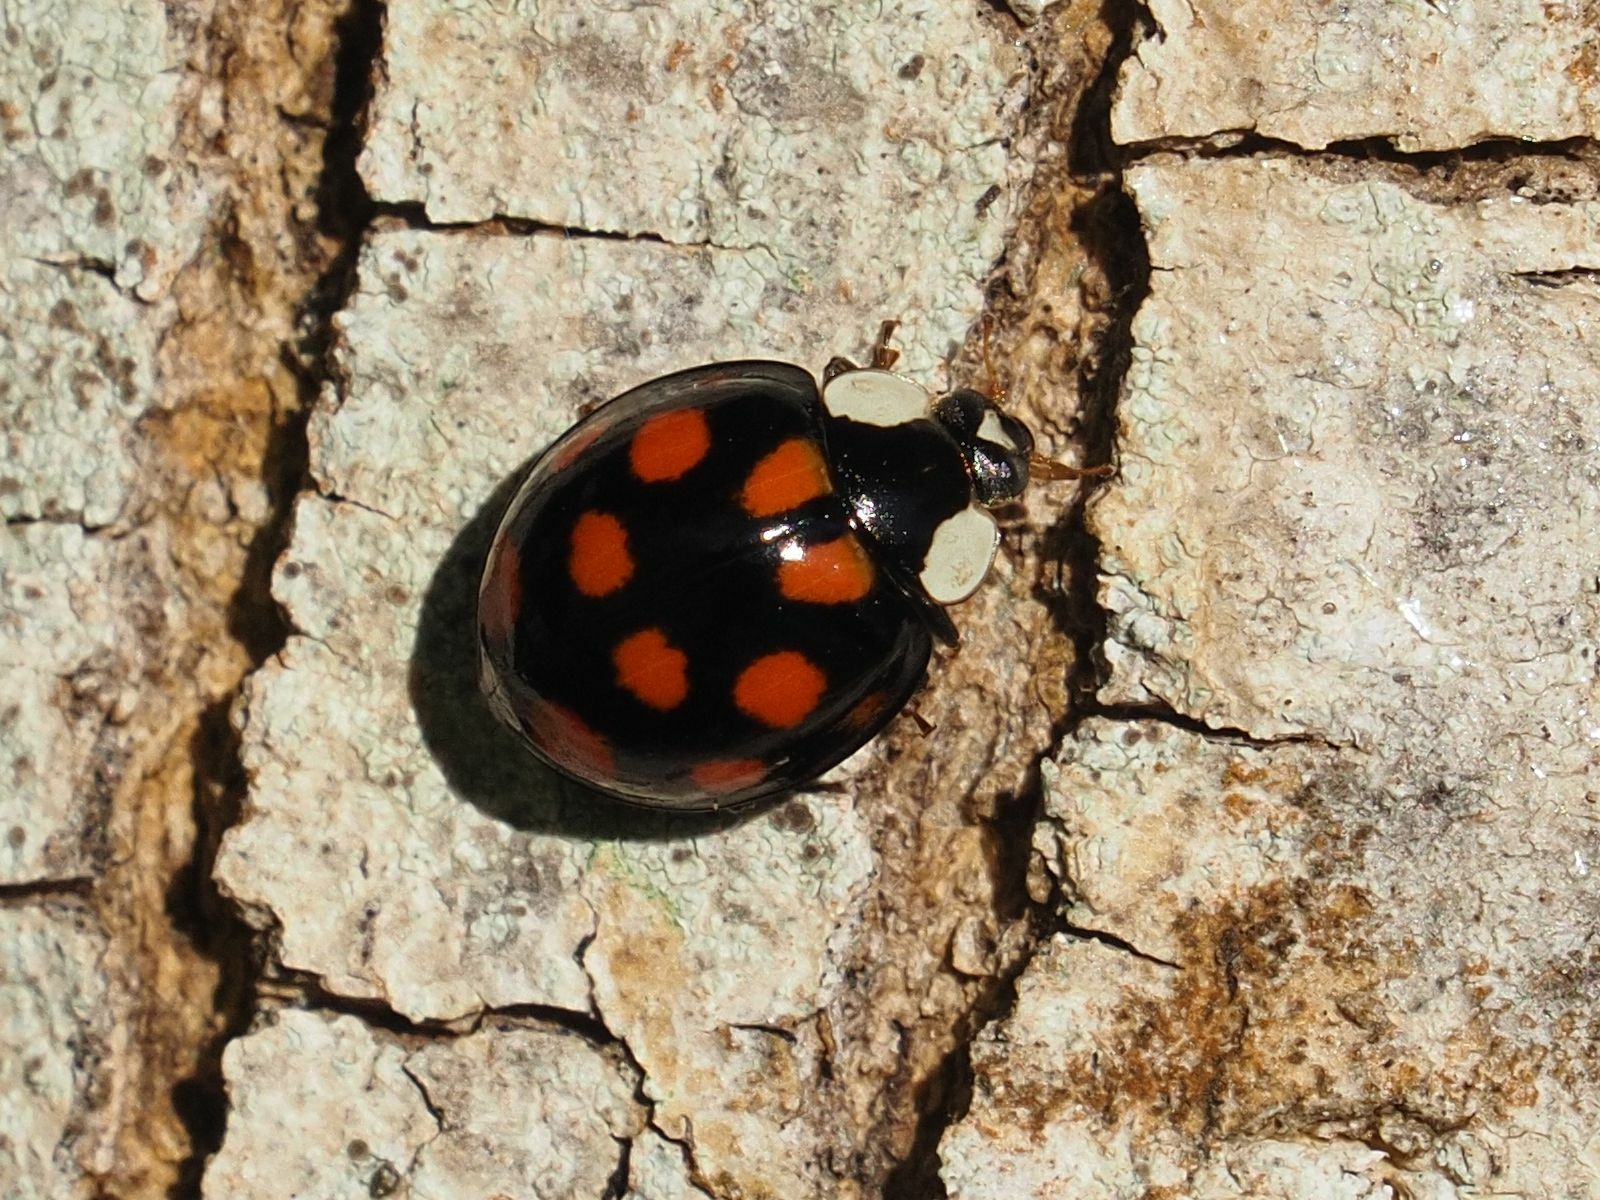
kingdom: Animalia
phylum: Arthropoda
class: Insecta
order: Coleoptera
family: Coccinellidae
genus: Harmonia
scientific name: Harmonia axyridis
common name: Harlequin ladybird
